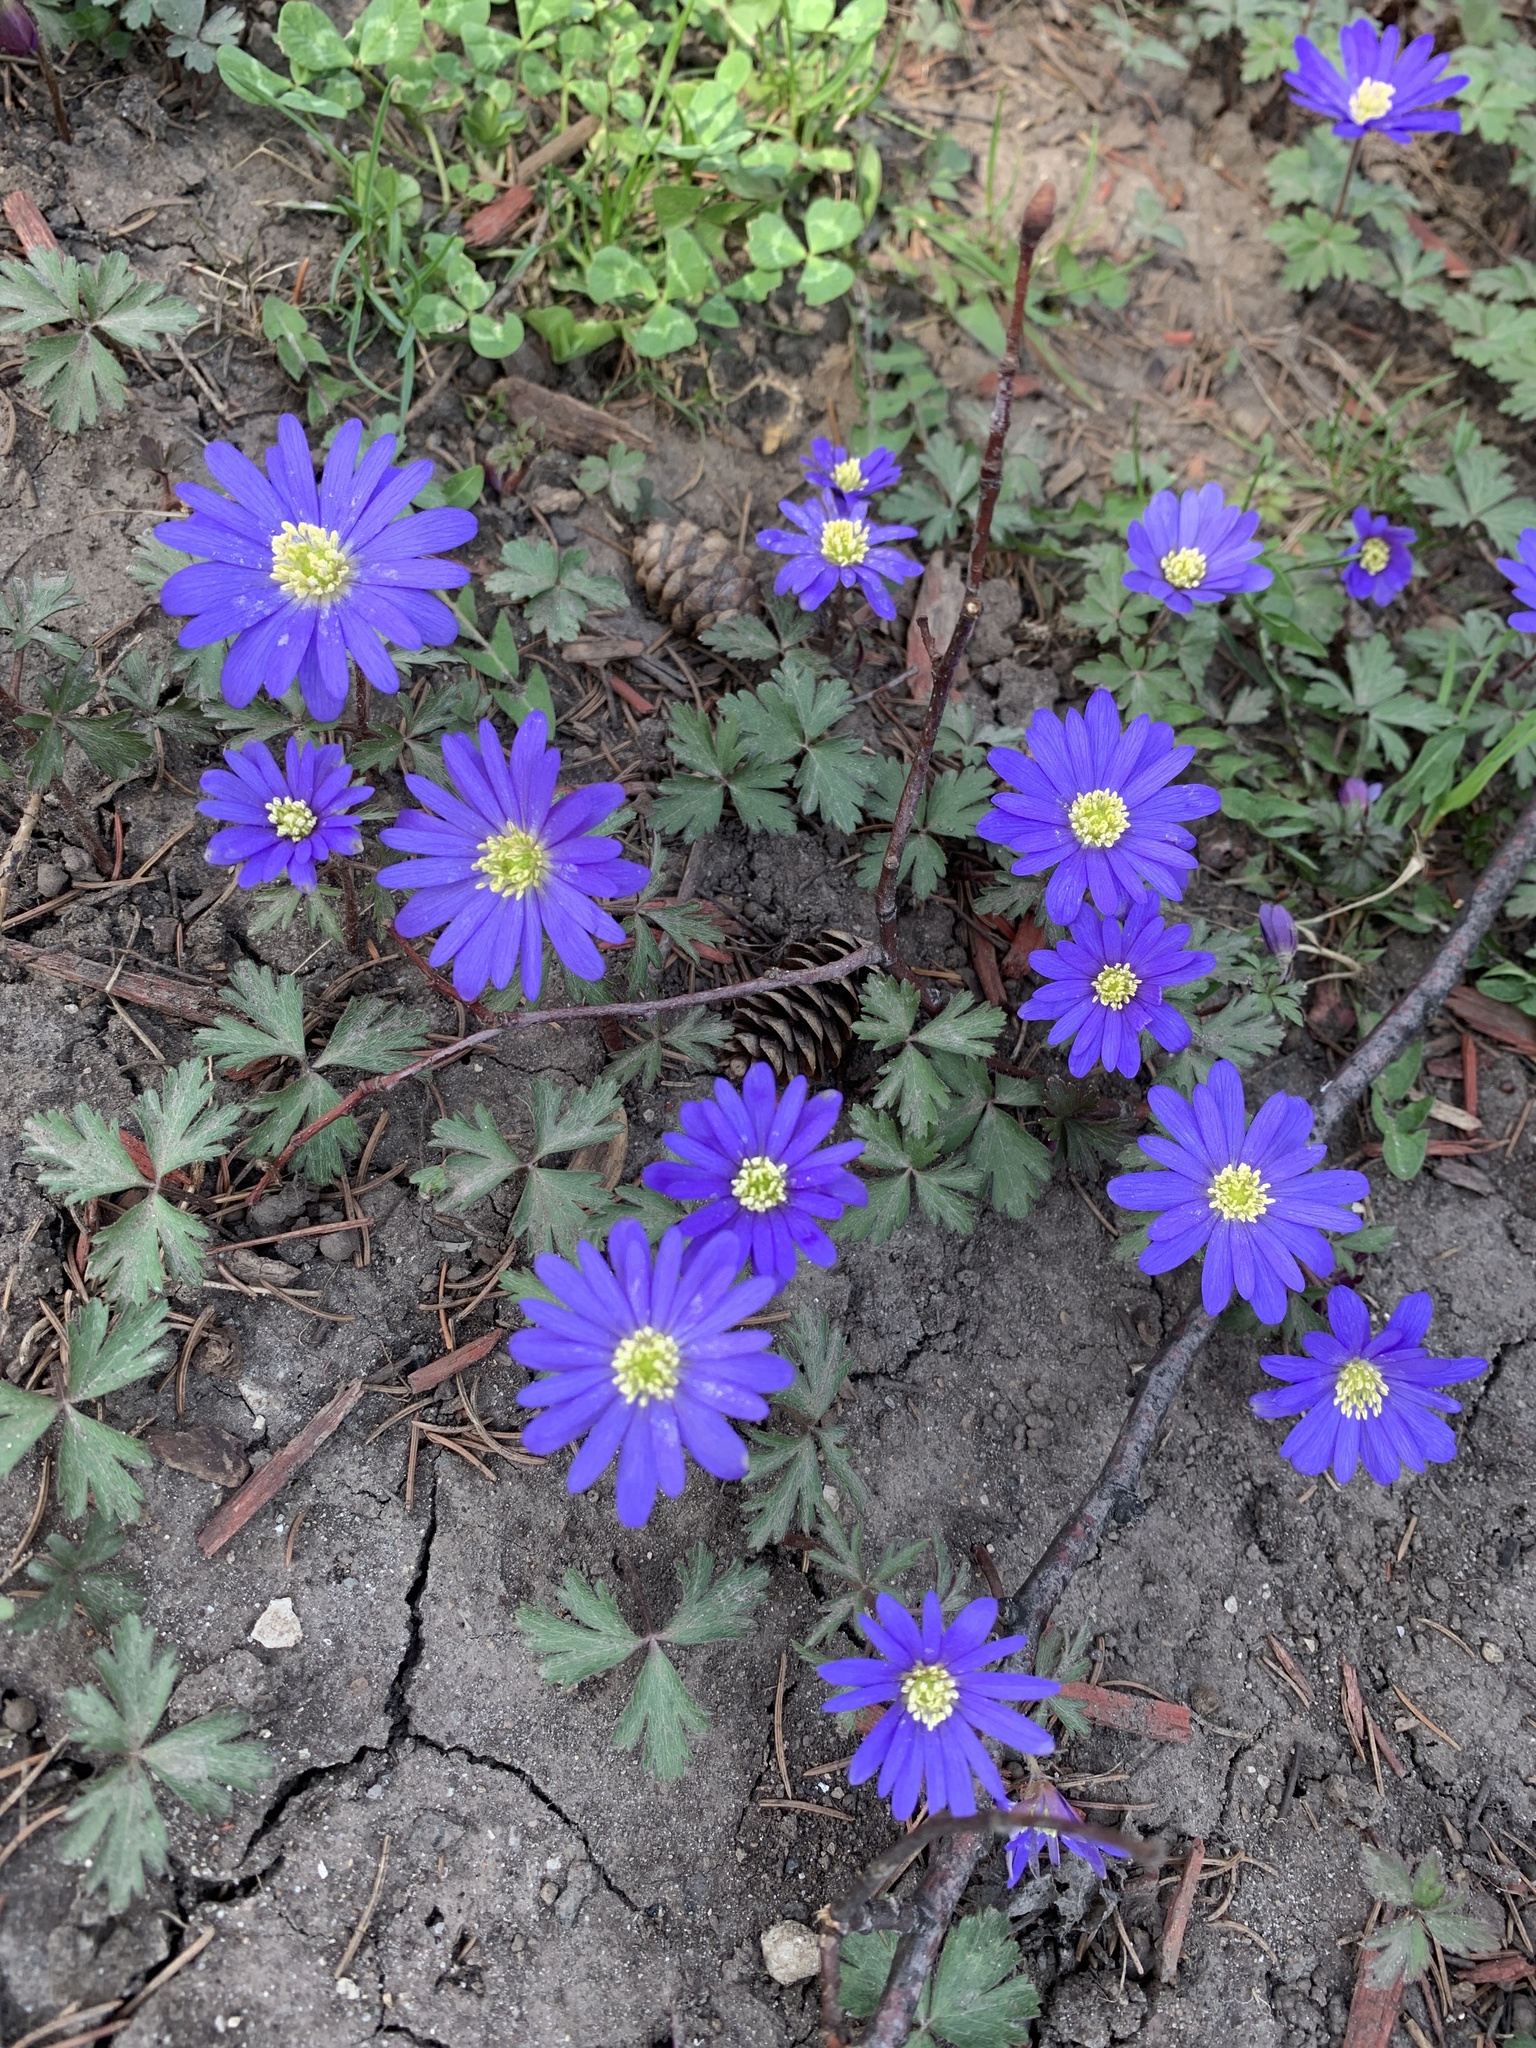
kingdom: Plantae
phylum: Tracheophyta
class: Magnoliopsida
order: Ranunculales
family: Ranunculaceae
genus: Anemone
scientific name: Anemone blanda
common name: Balkan anemone
